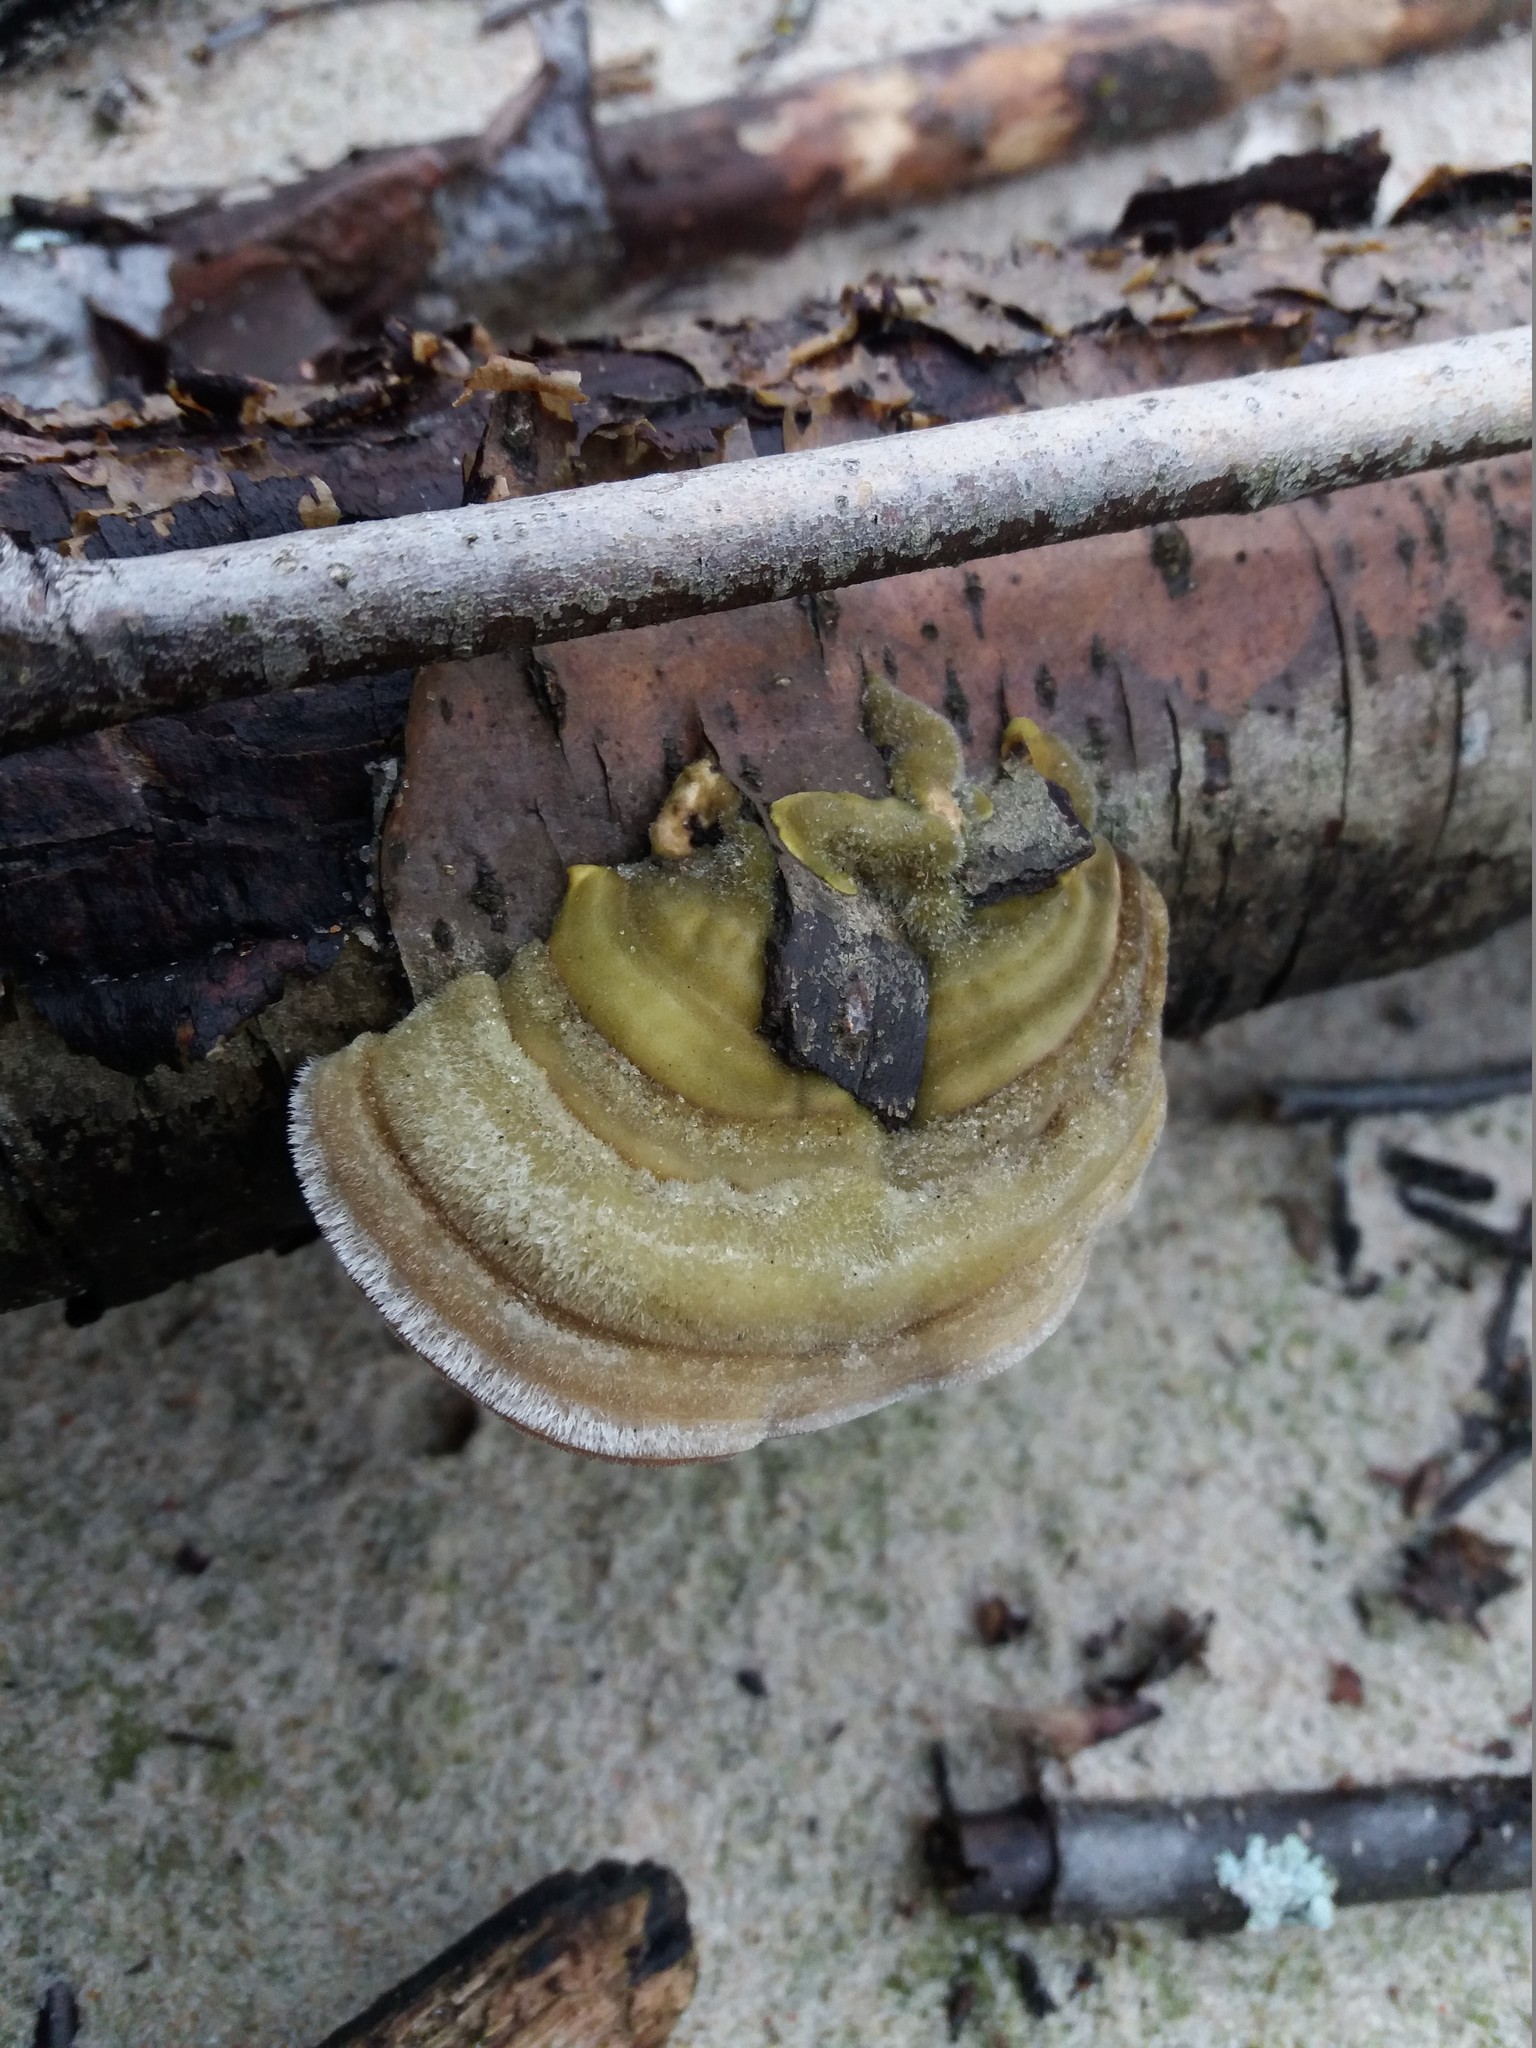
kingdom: Fungi
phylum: Basidiomycota
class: Agaricomycetes
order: Polyporales
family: Polyporaceae
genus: Trametes
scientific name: Trametes hirsuta
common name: Hairy bracket
